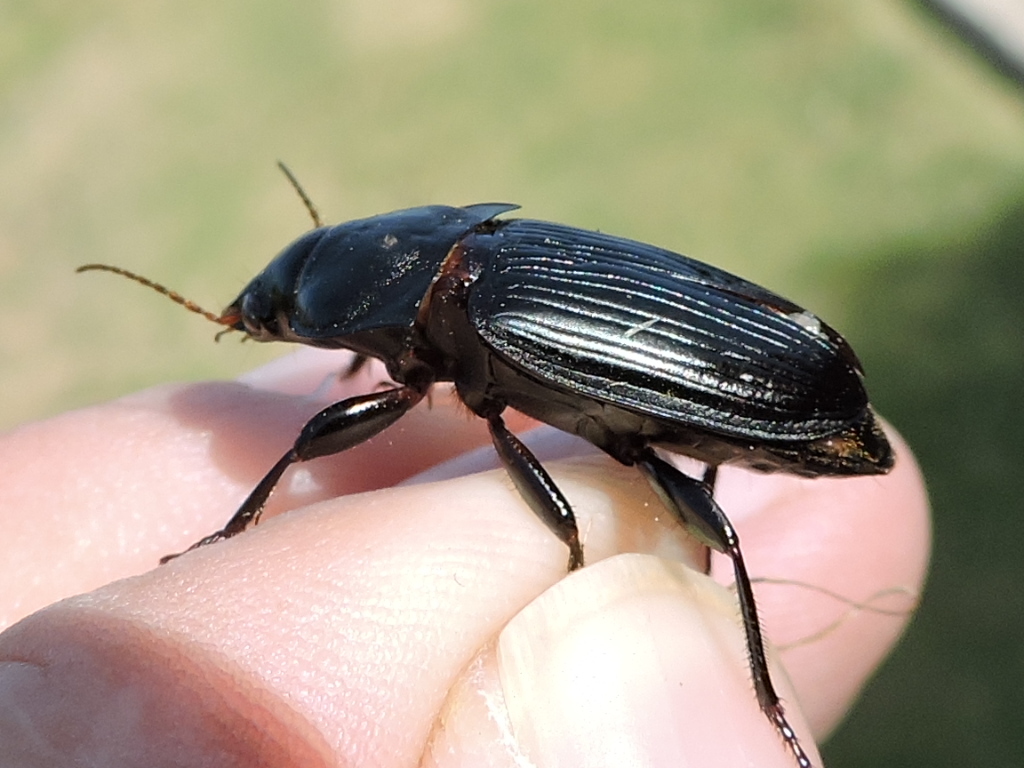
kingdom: Animalia
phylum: Arthropoda
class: Insecta
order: Coleoptera
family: Carabidae
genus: Harpalus
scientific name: Harpalus caliginosus
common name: Murky ground beetle
